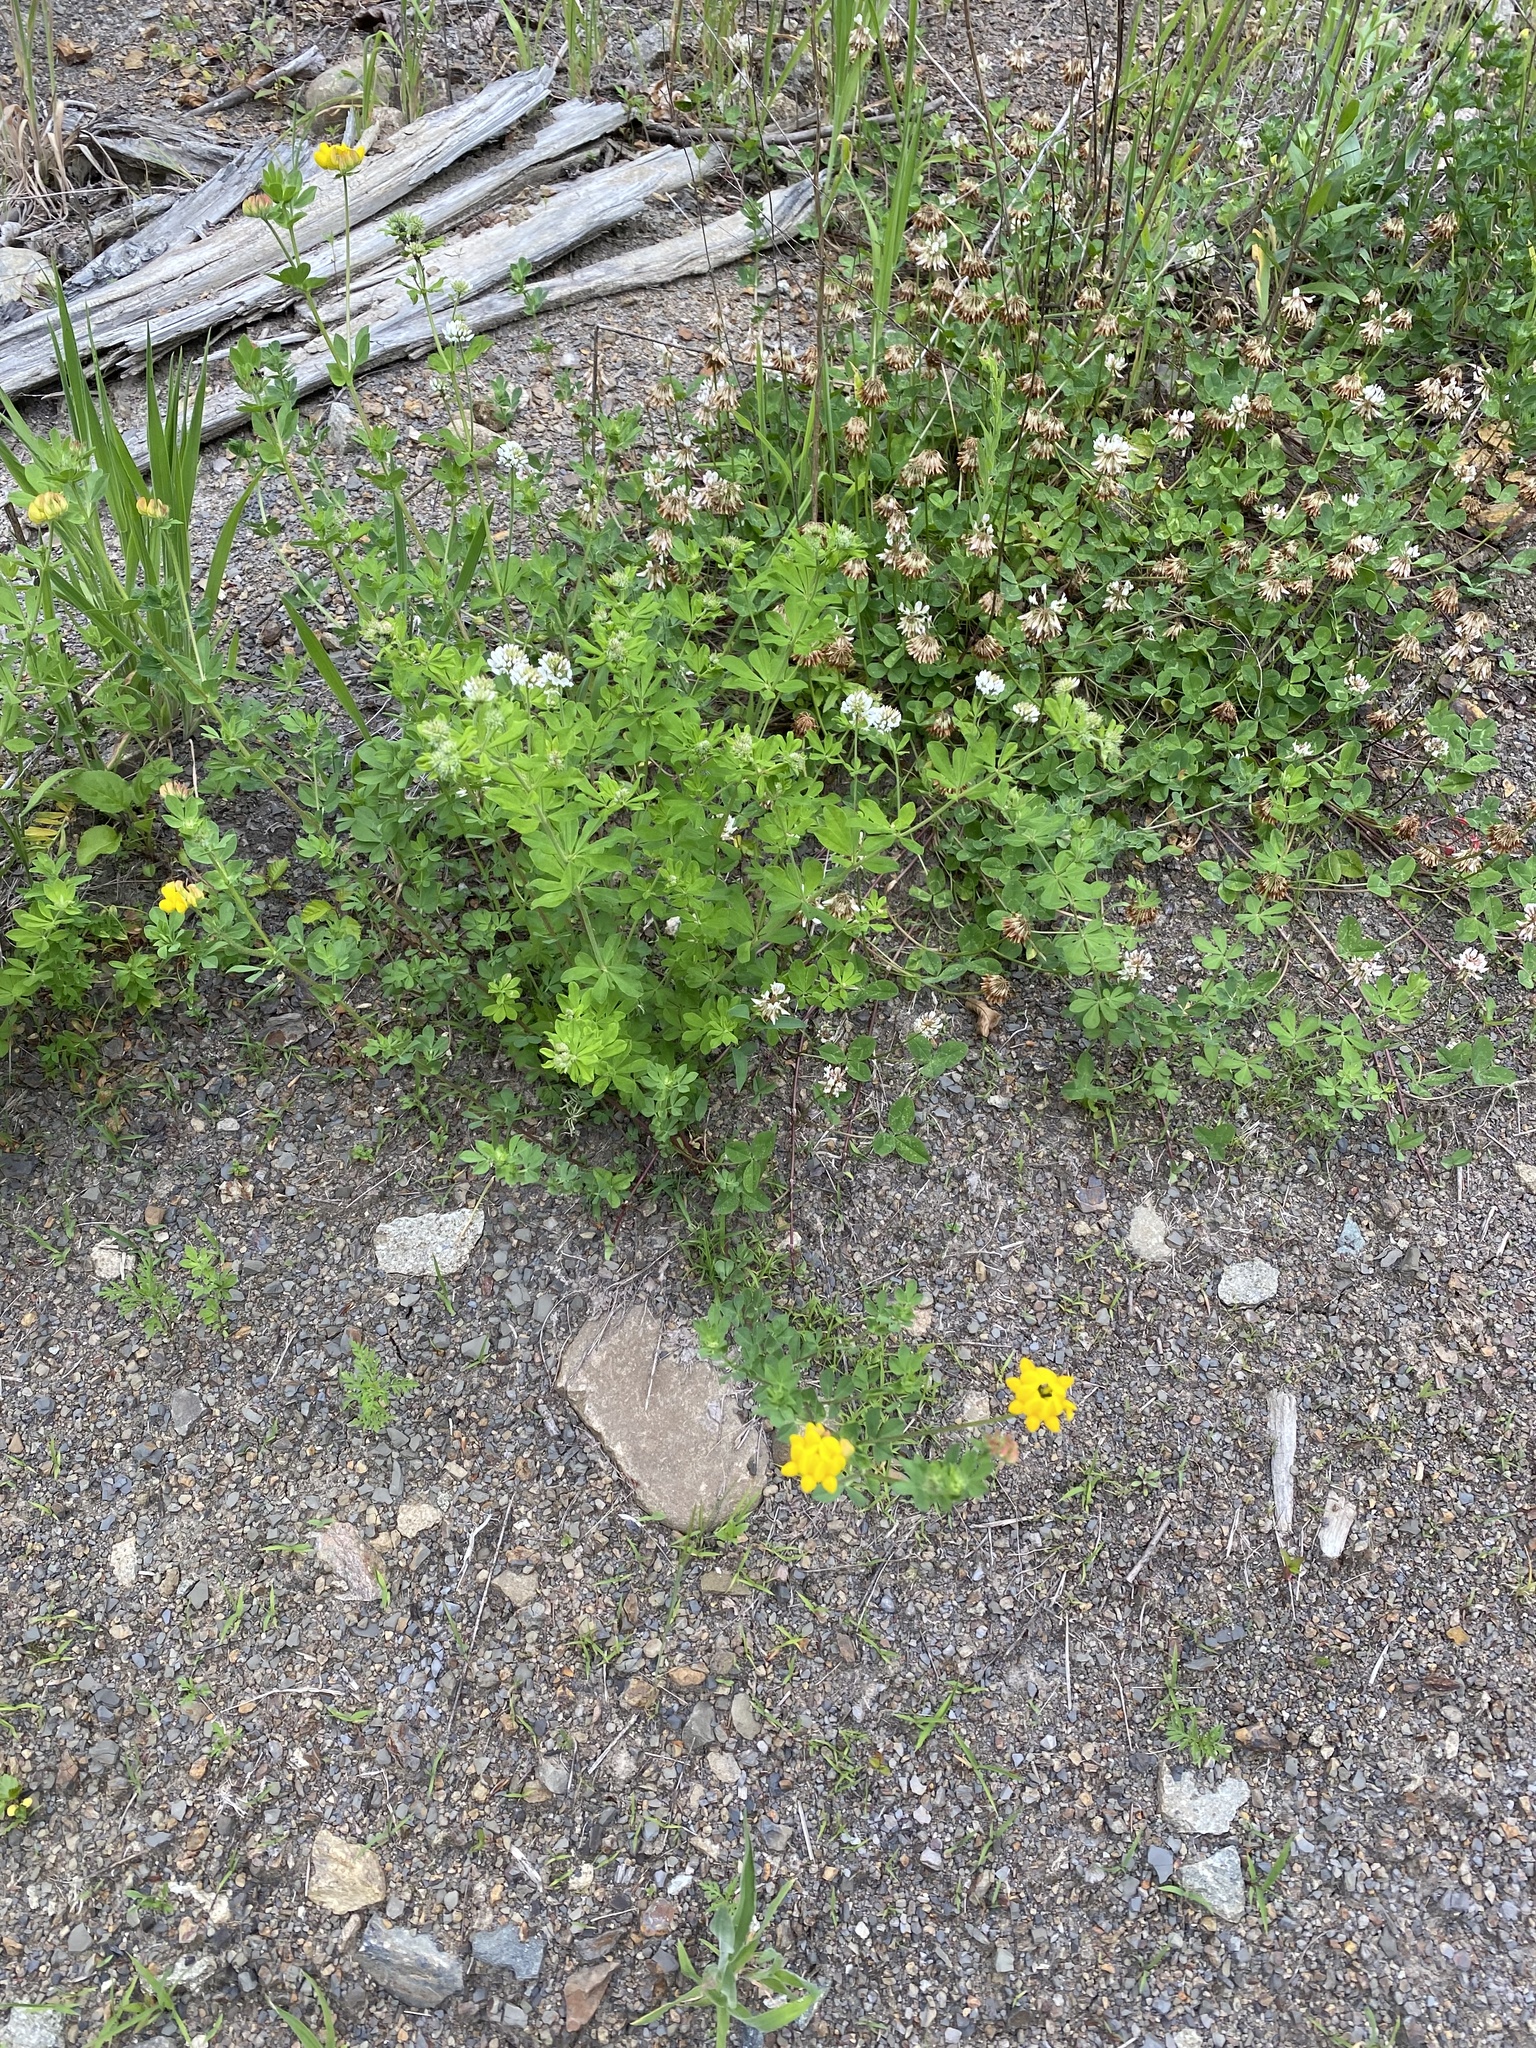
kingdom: Plantae
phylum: Tracheophyta
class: Magnoliopsida
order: Fabales
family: Fabaceae
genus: Lotus
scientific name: Lotus corniculatus
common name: Common bird's-foot-trefoil
